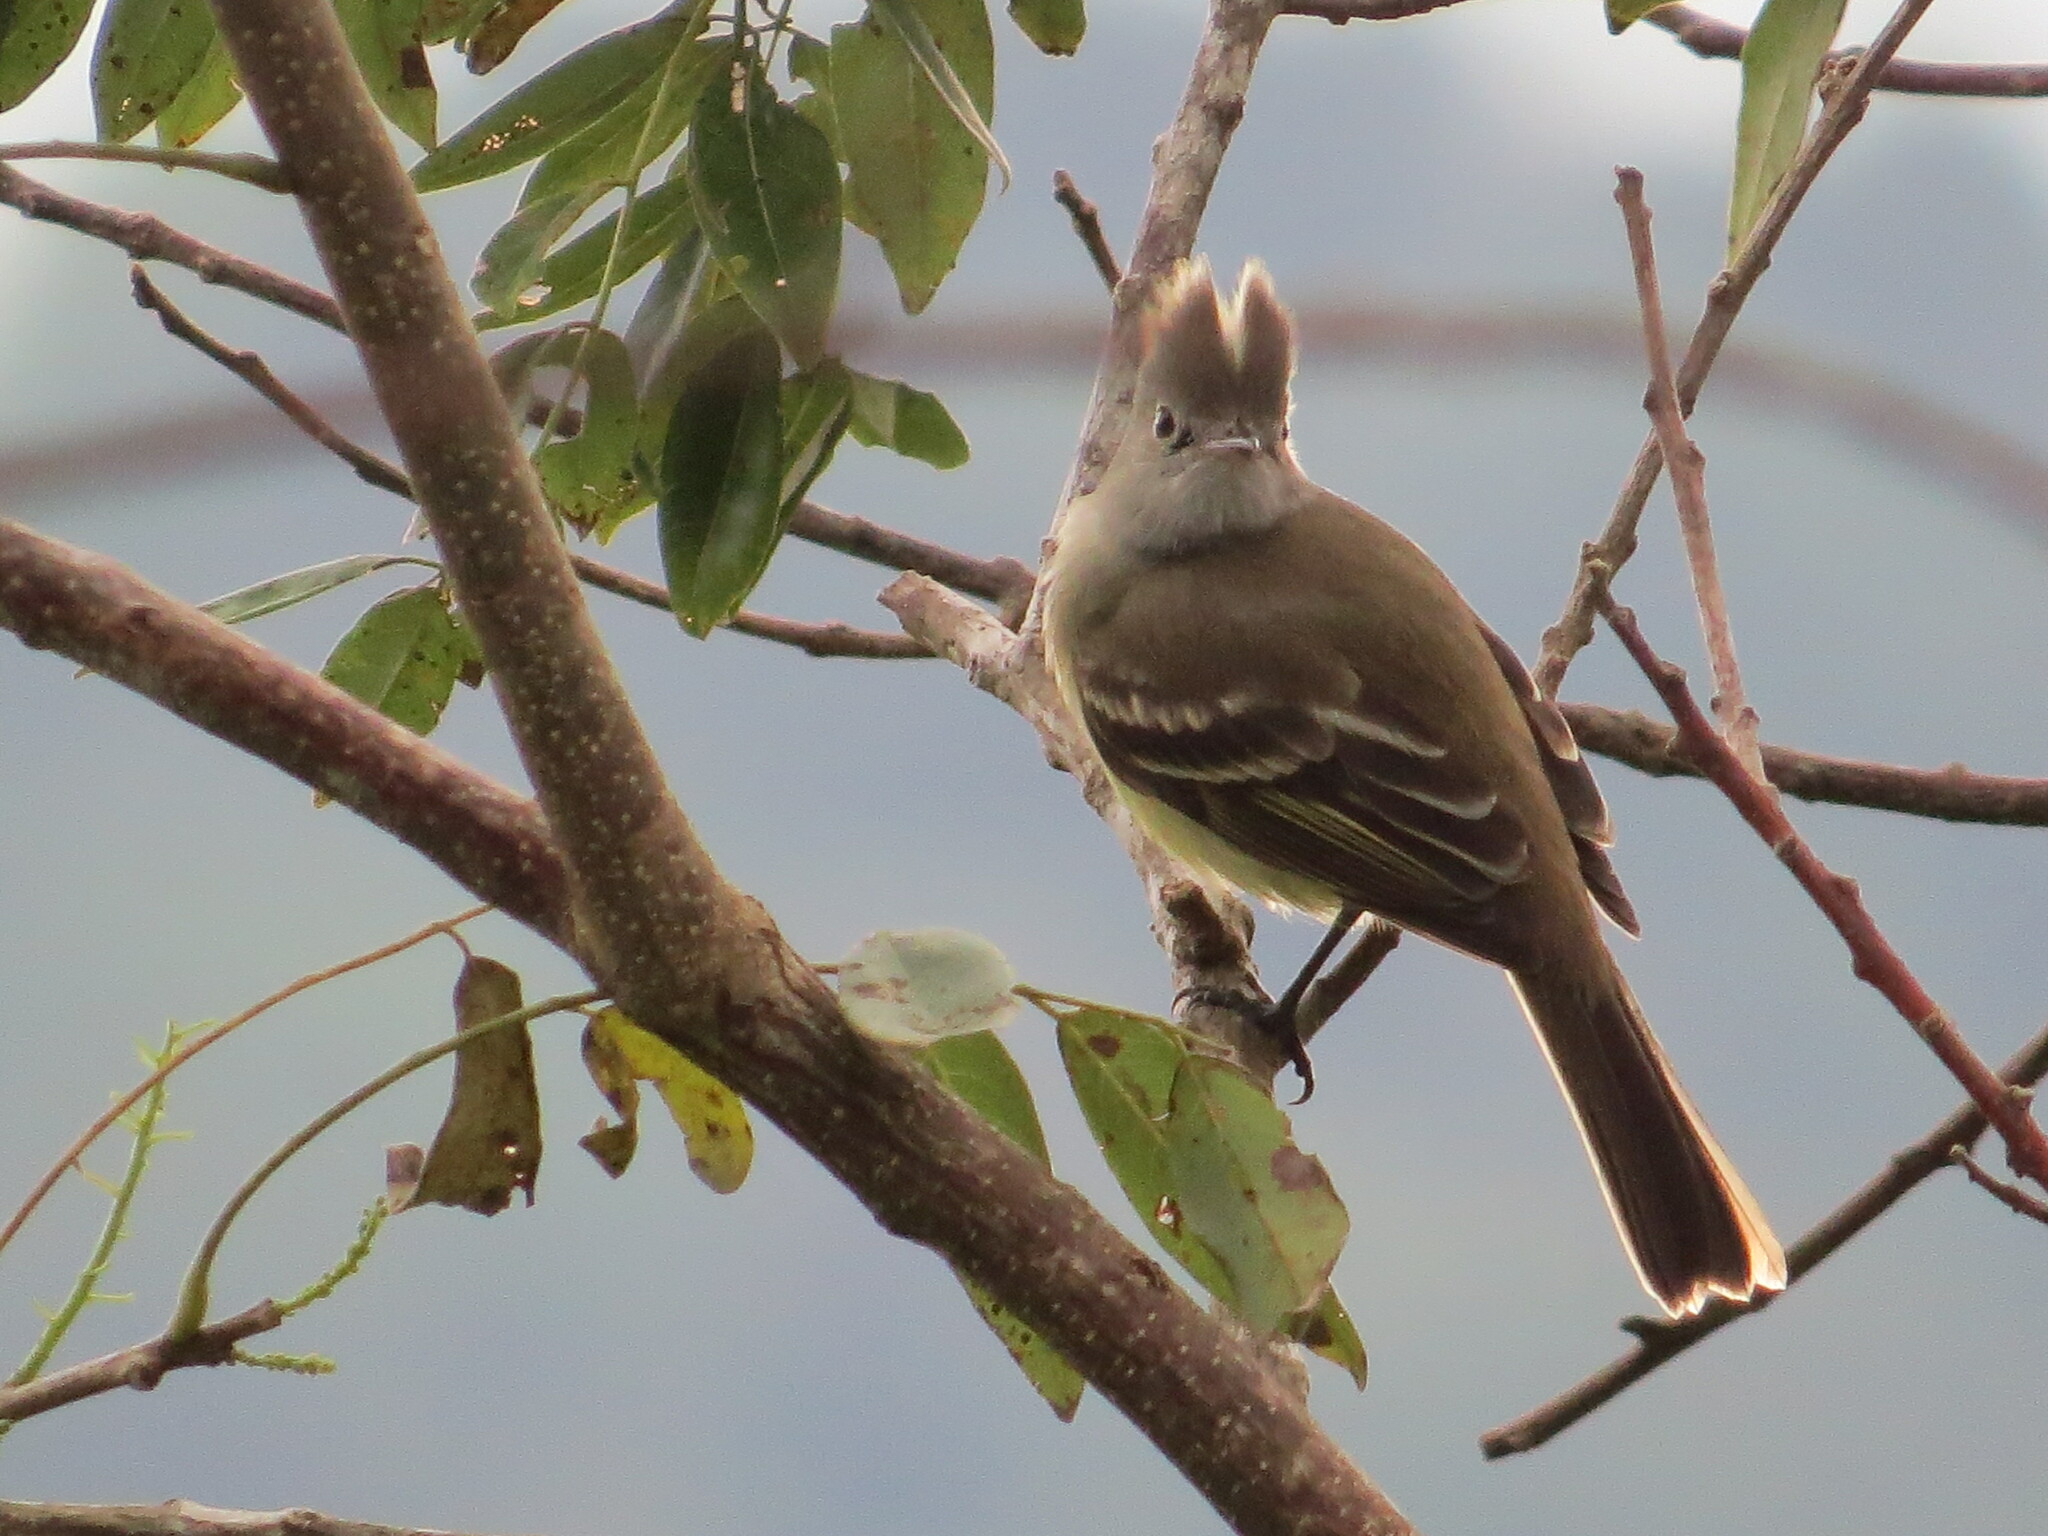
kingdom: Animalia
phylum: Chordata
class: Aves
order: Passeriformes
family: Tyrannidae
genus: Elaenia
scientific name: Elaenia flavogaster
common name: Yellow-bellied elaenia
